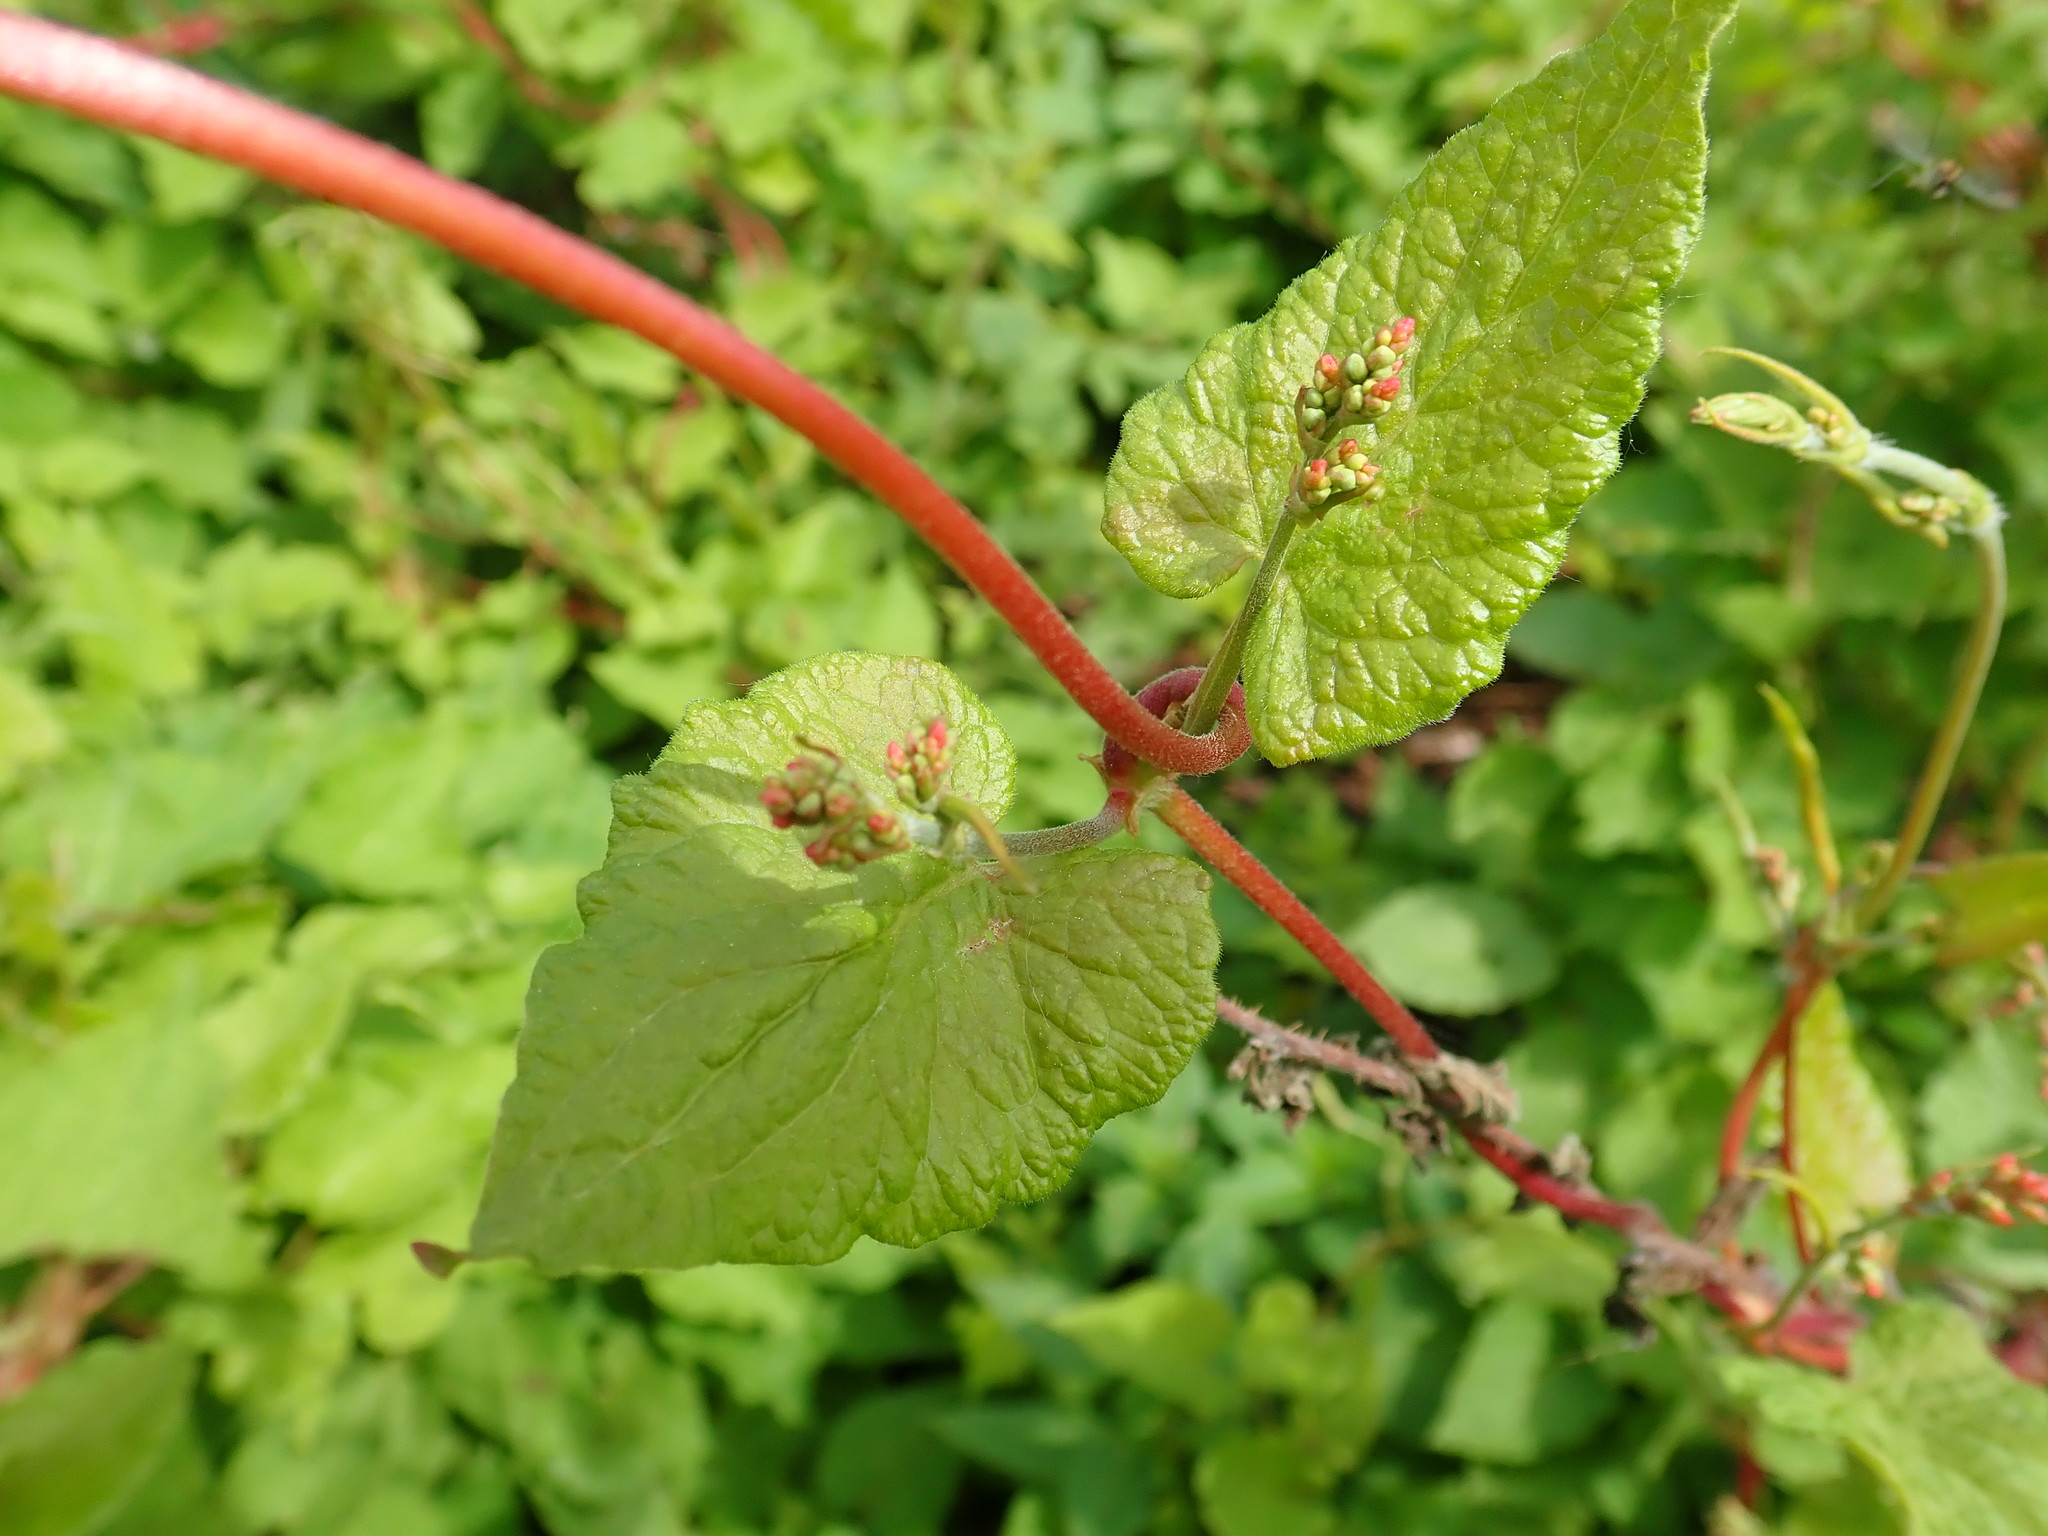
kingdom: Plantae
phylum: Tracheophyta
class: Magnoliopsida
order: Caryophyllales
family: Polygonaceae
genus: Parogonum
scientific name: Parogonum ciliinode
